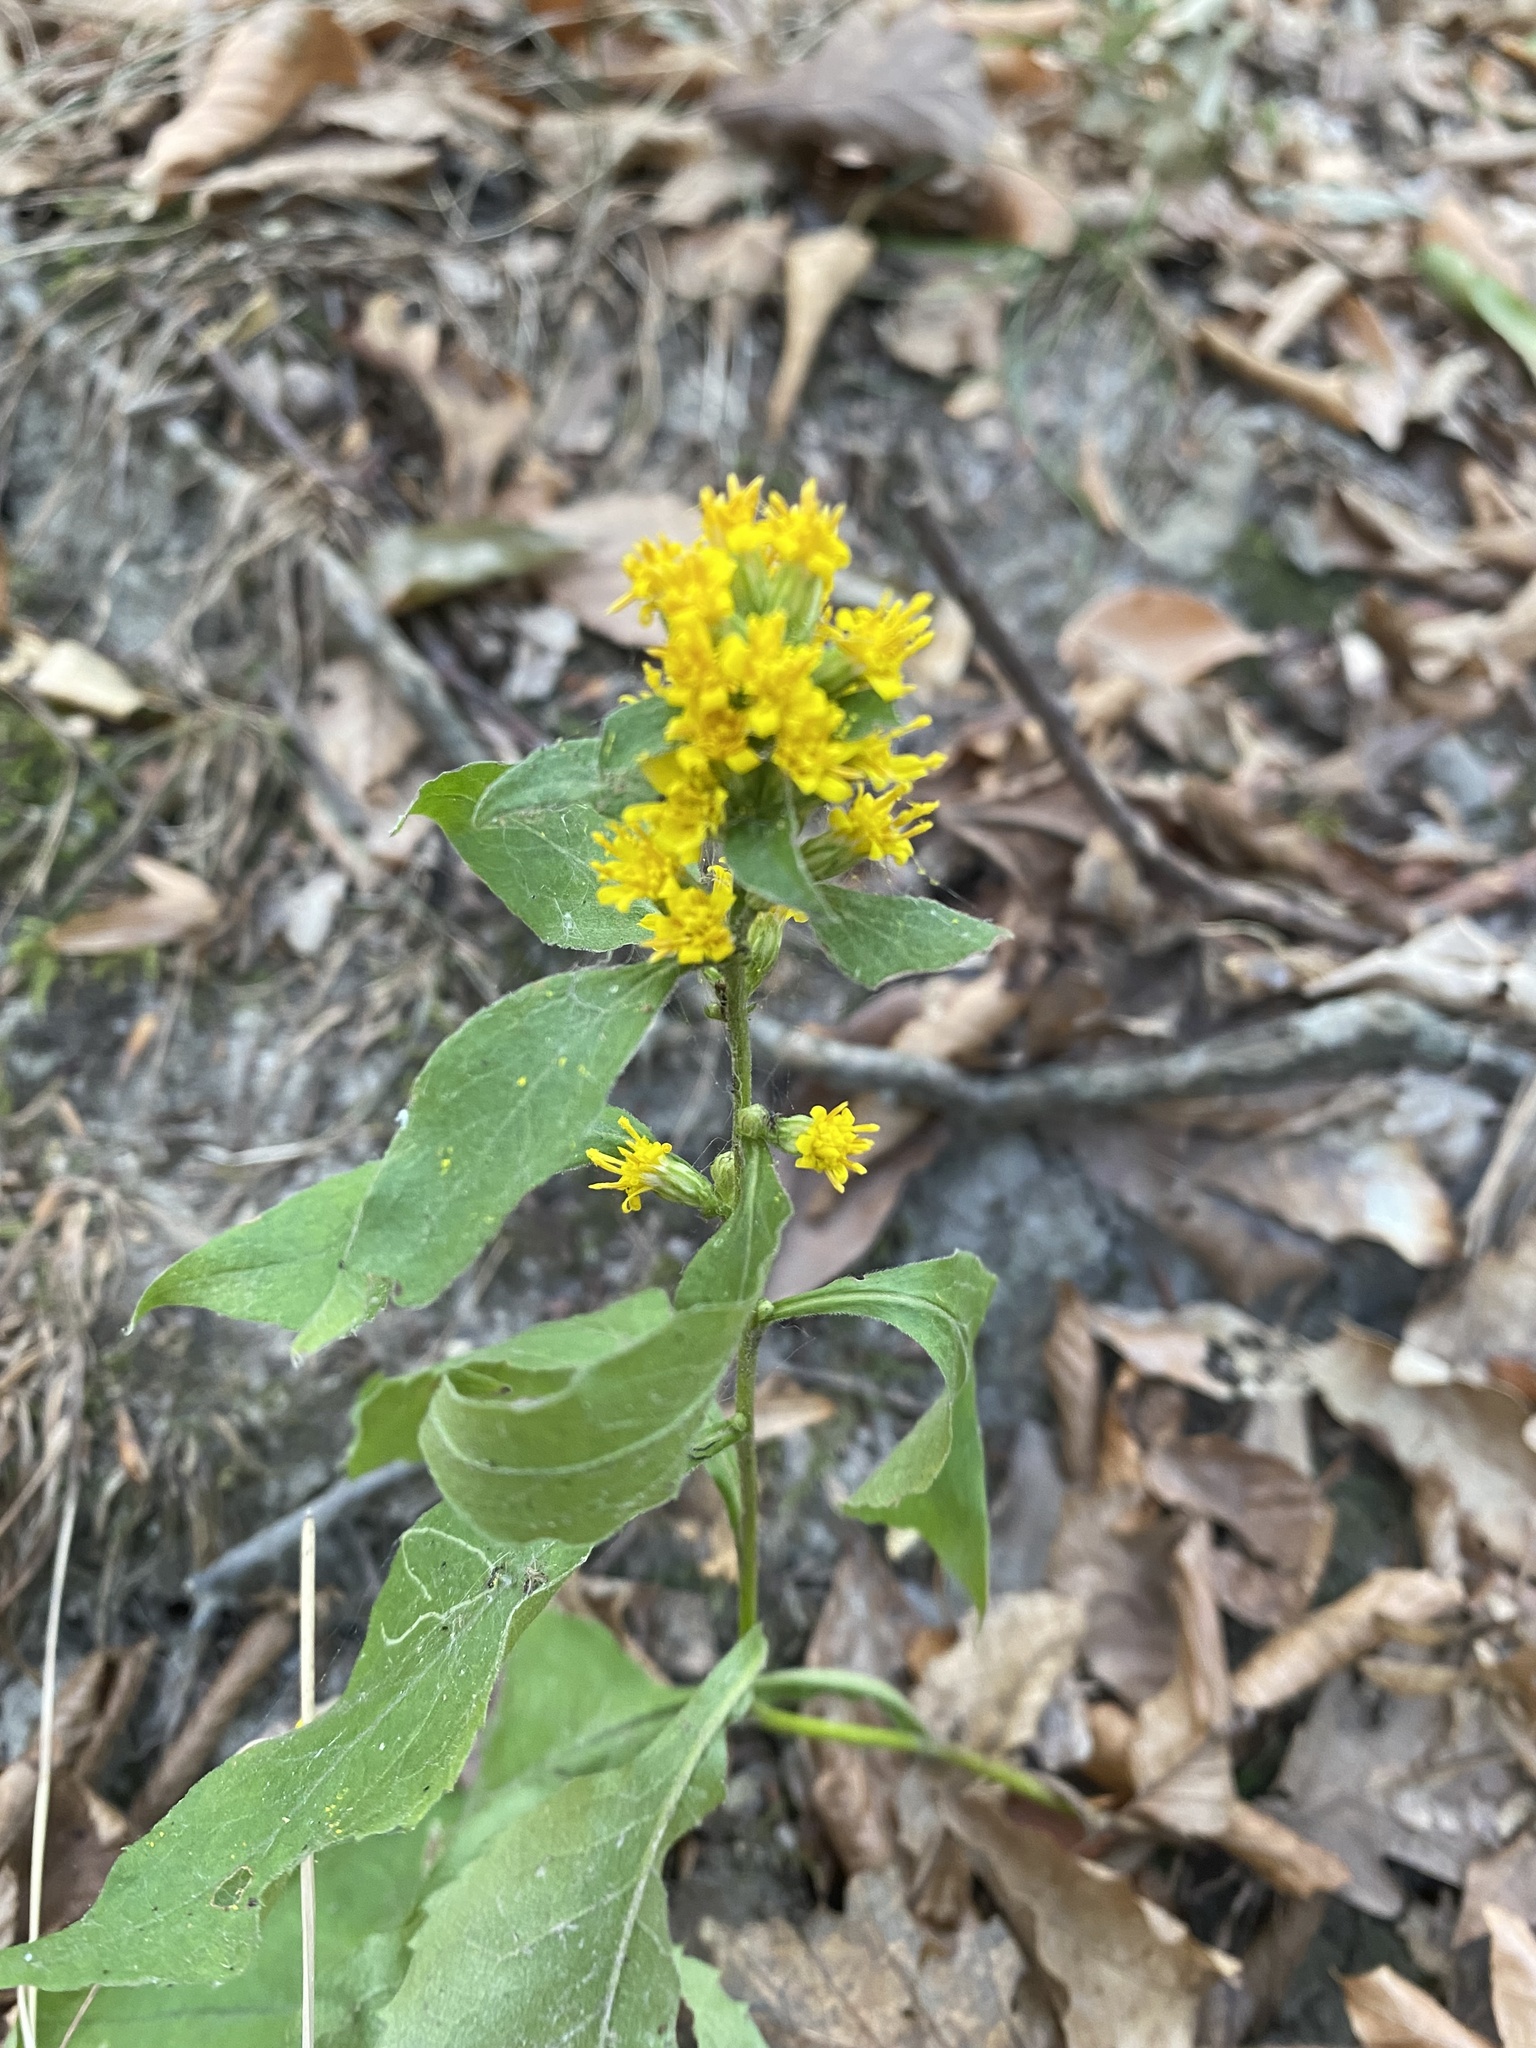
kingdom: Plantae
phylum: Tracheophyta
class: Magnoliopsida
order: Asterales
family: Asteraceae
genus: Solidago
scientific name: Solidago virgaurea
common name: Goldenrod
